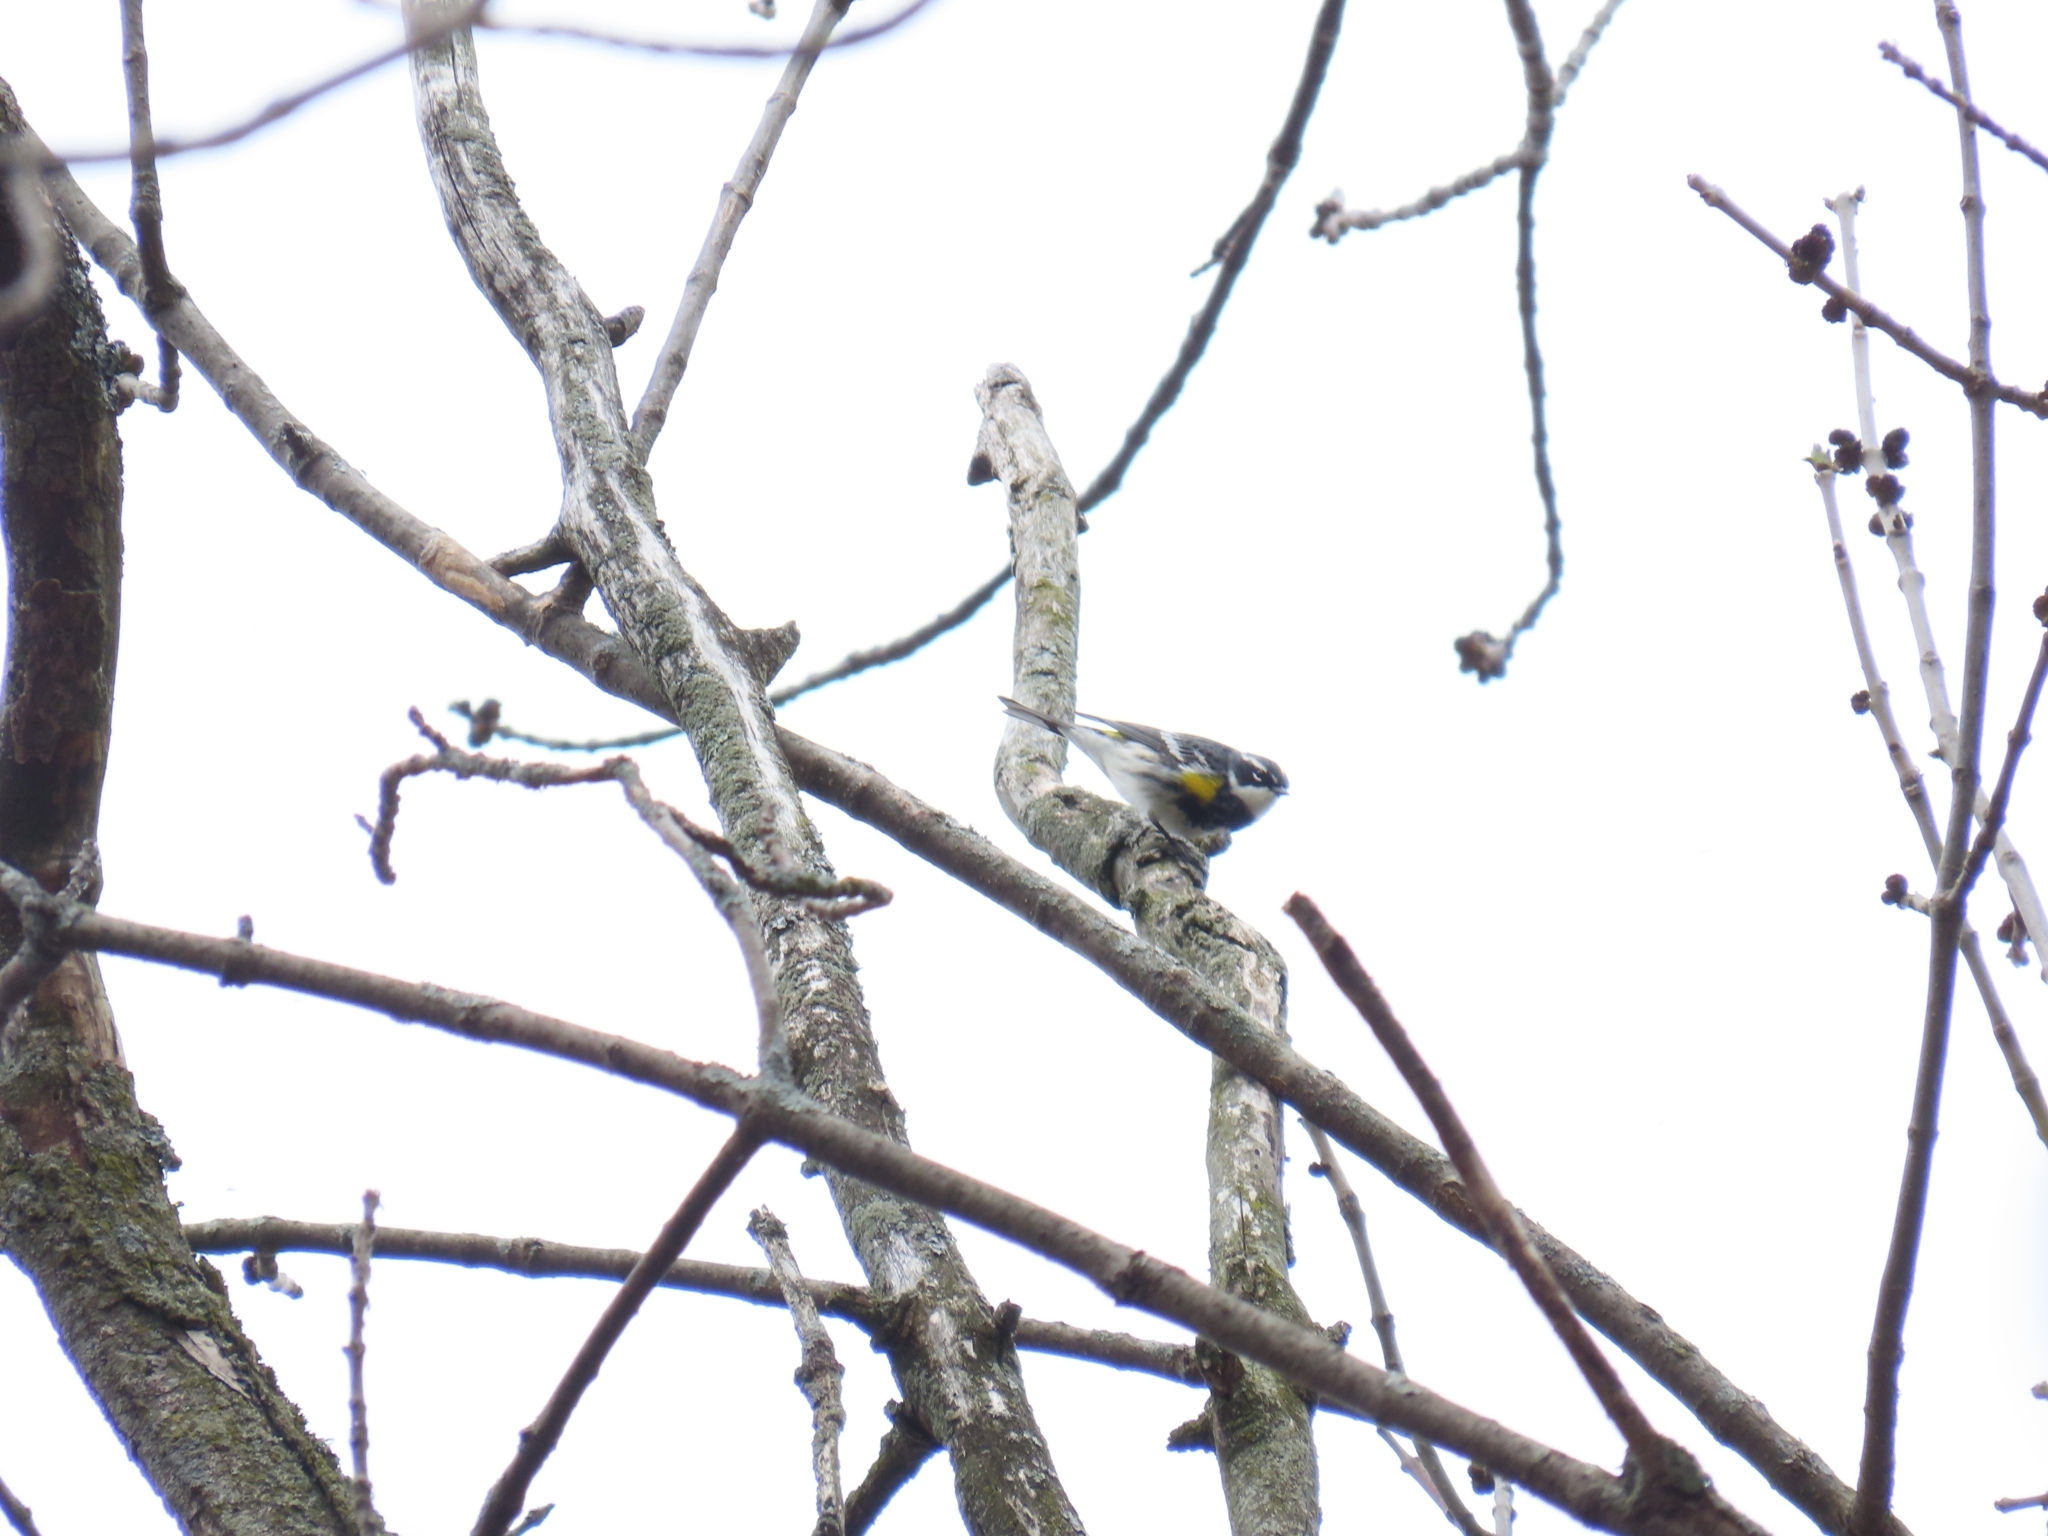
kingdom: Animalia
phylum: Chordata
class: Aves
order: Passeriformes
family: Parulidae
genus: Setophaga
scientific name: Setophaga coronata
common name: Myrtle warbler
